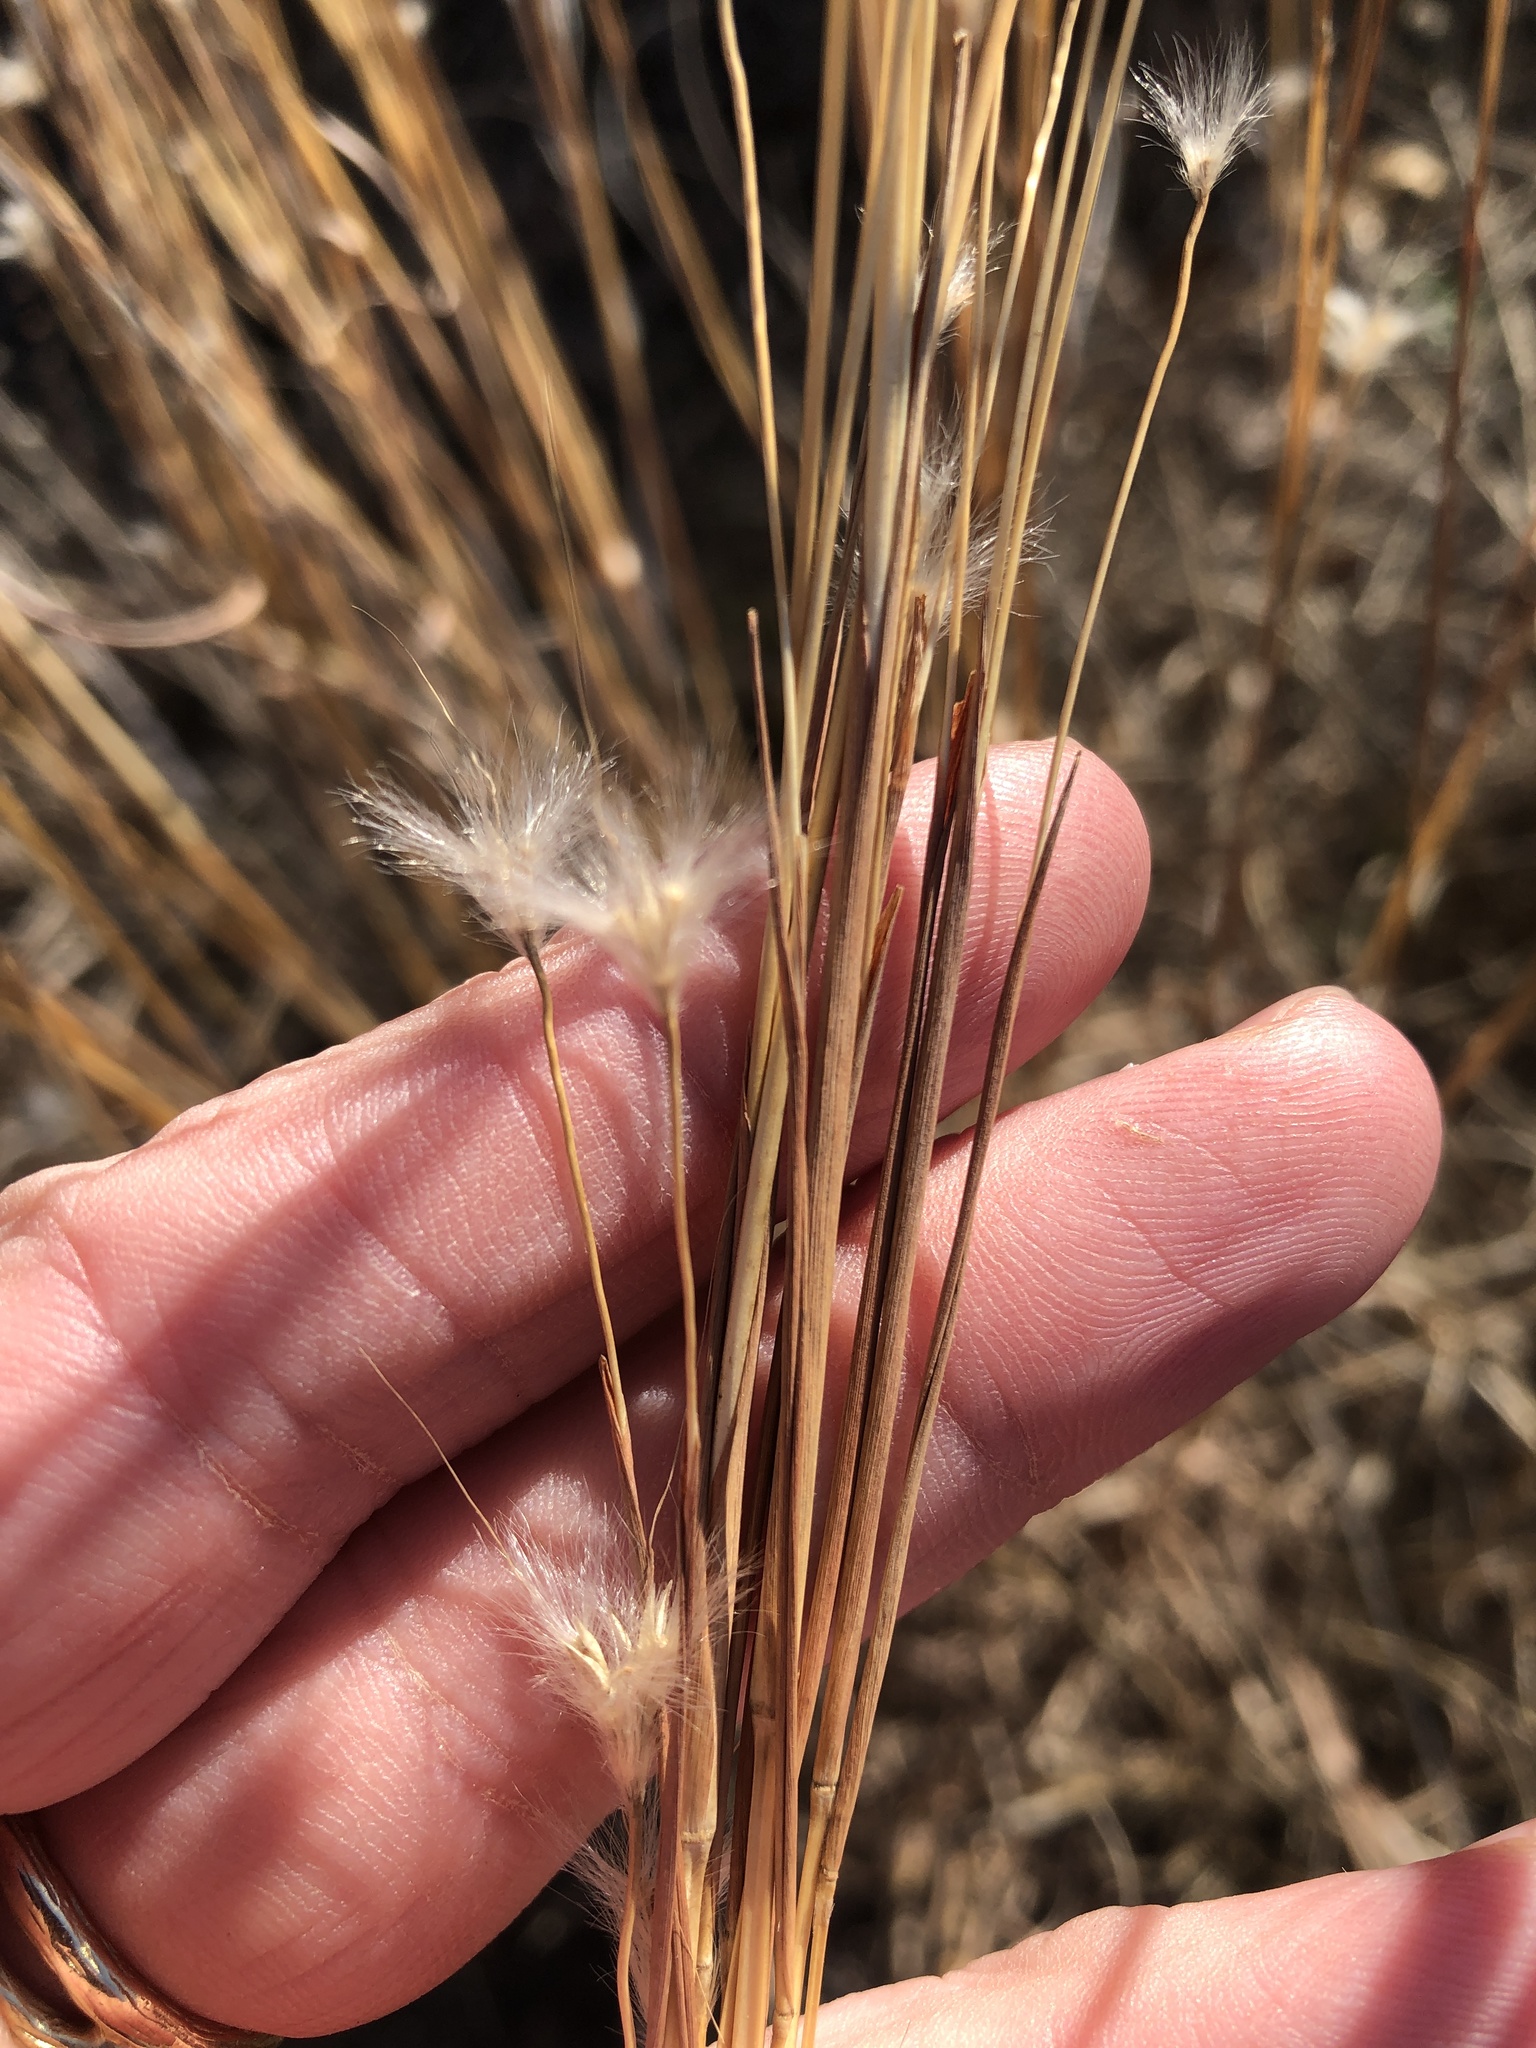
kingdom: Plantae
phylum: Tracheophyta
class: Liliopsida
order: Poales
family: Poaceae
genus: Andropogon
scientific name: Andropogon ternarius
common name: Split bluestem
